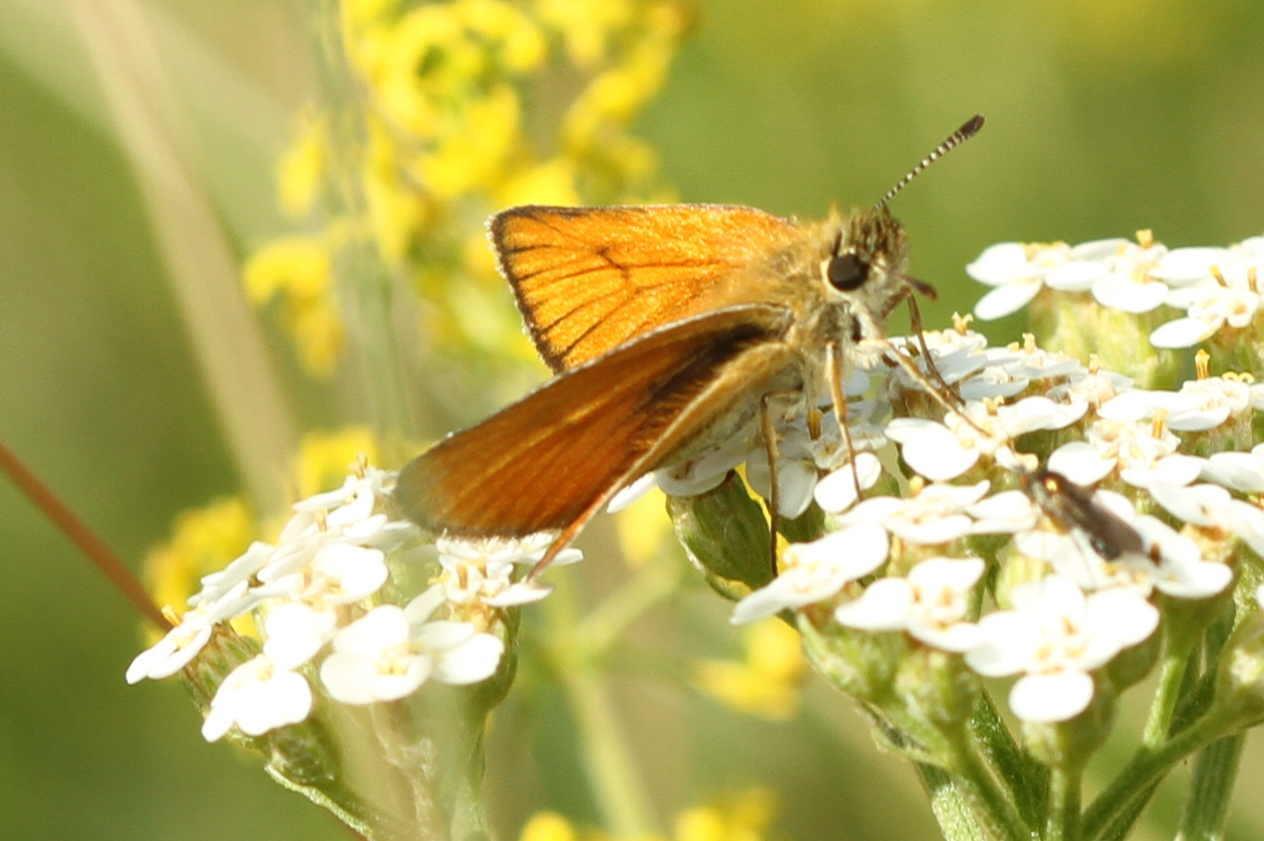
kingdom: Animalia
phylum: Arthropoda
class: Insecta
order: Lepidoptera
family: Hesperiidae
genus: Thymelicus
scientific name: Thymelicus lineola
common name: Essex skipper
